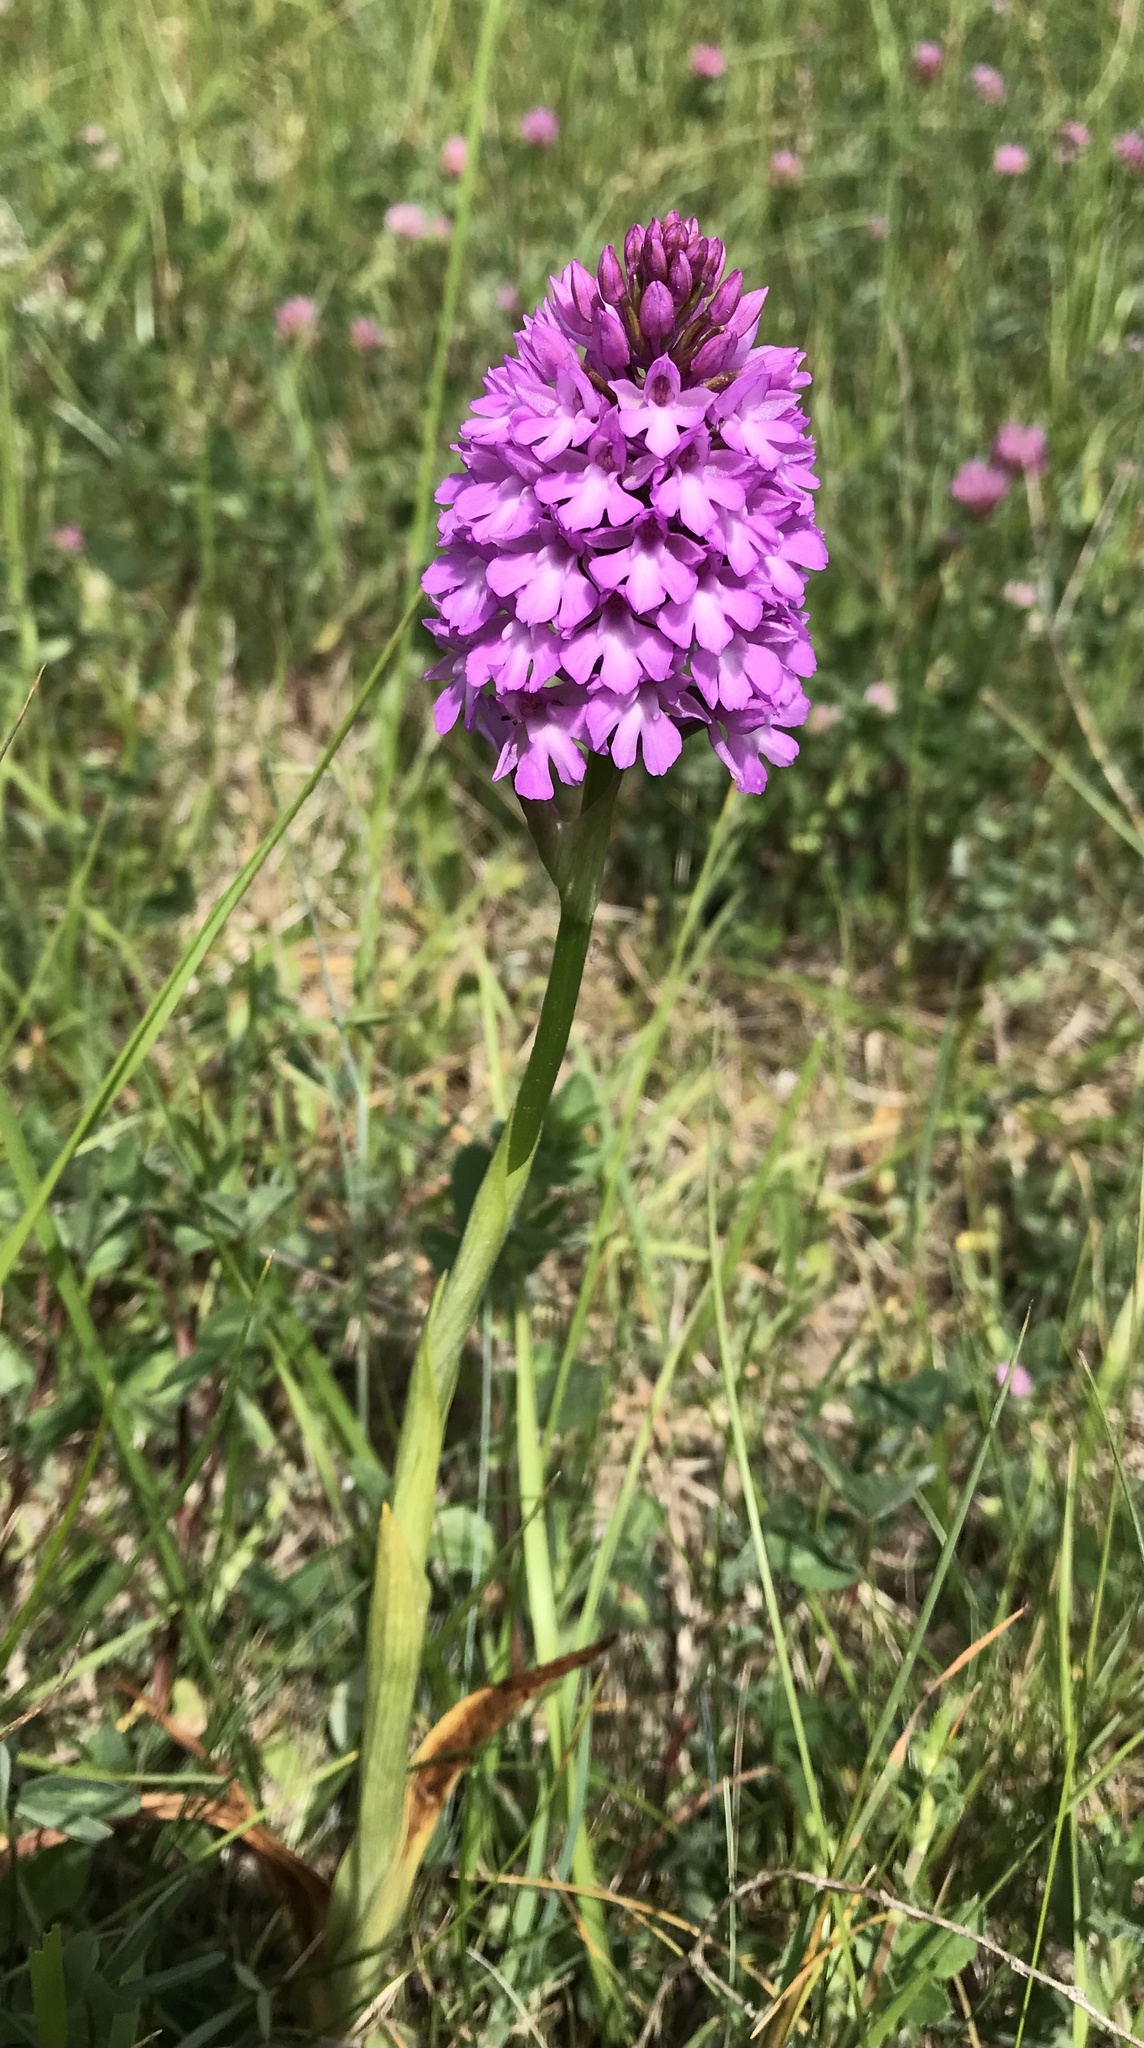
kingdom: Plantae
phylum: Tracheophyta
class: Liliopsida
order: Asparagales
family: Orchidaceae
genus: Anacamptis
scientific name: Anacamptis pyramidalis
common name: Pyramidal orchid
